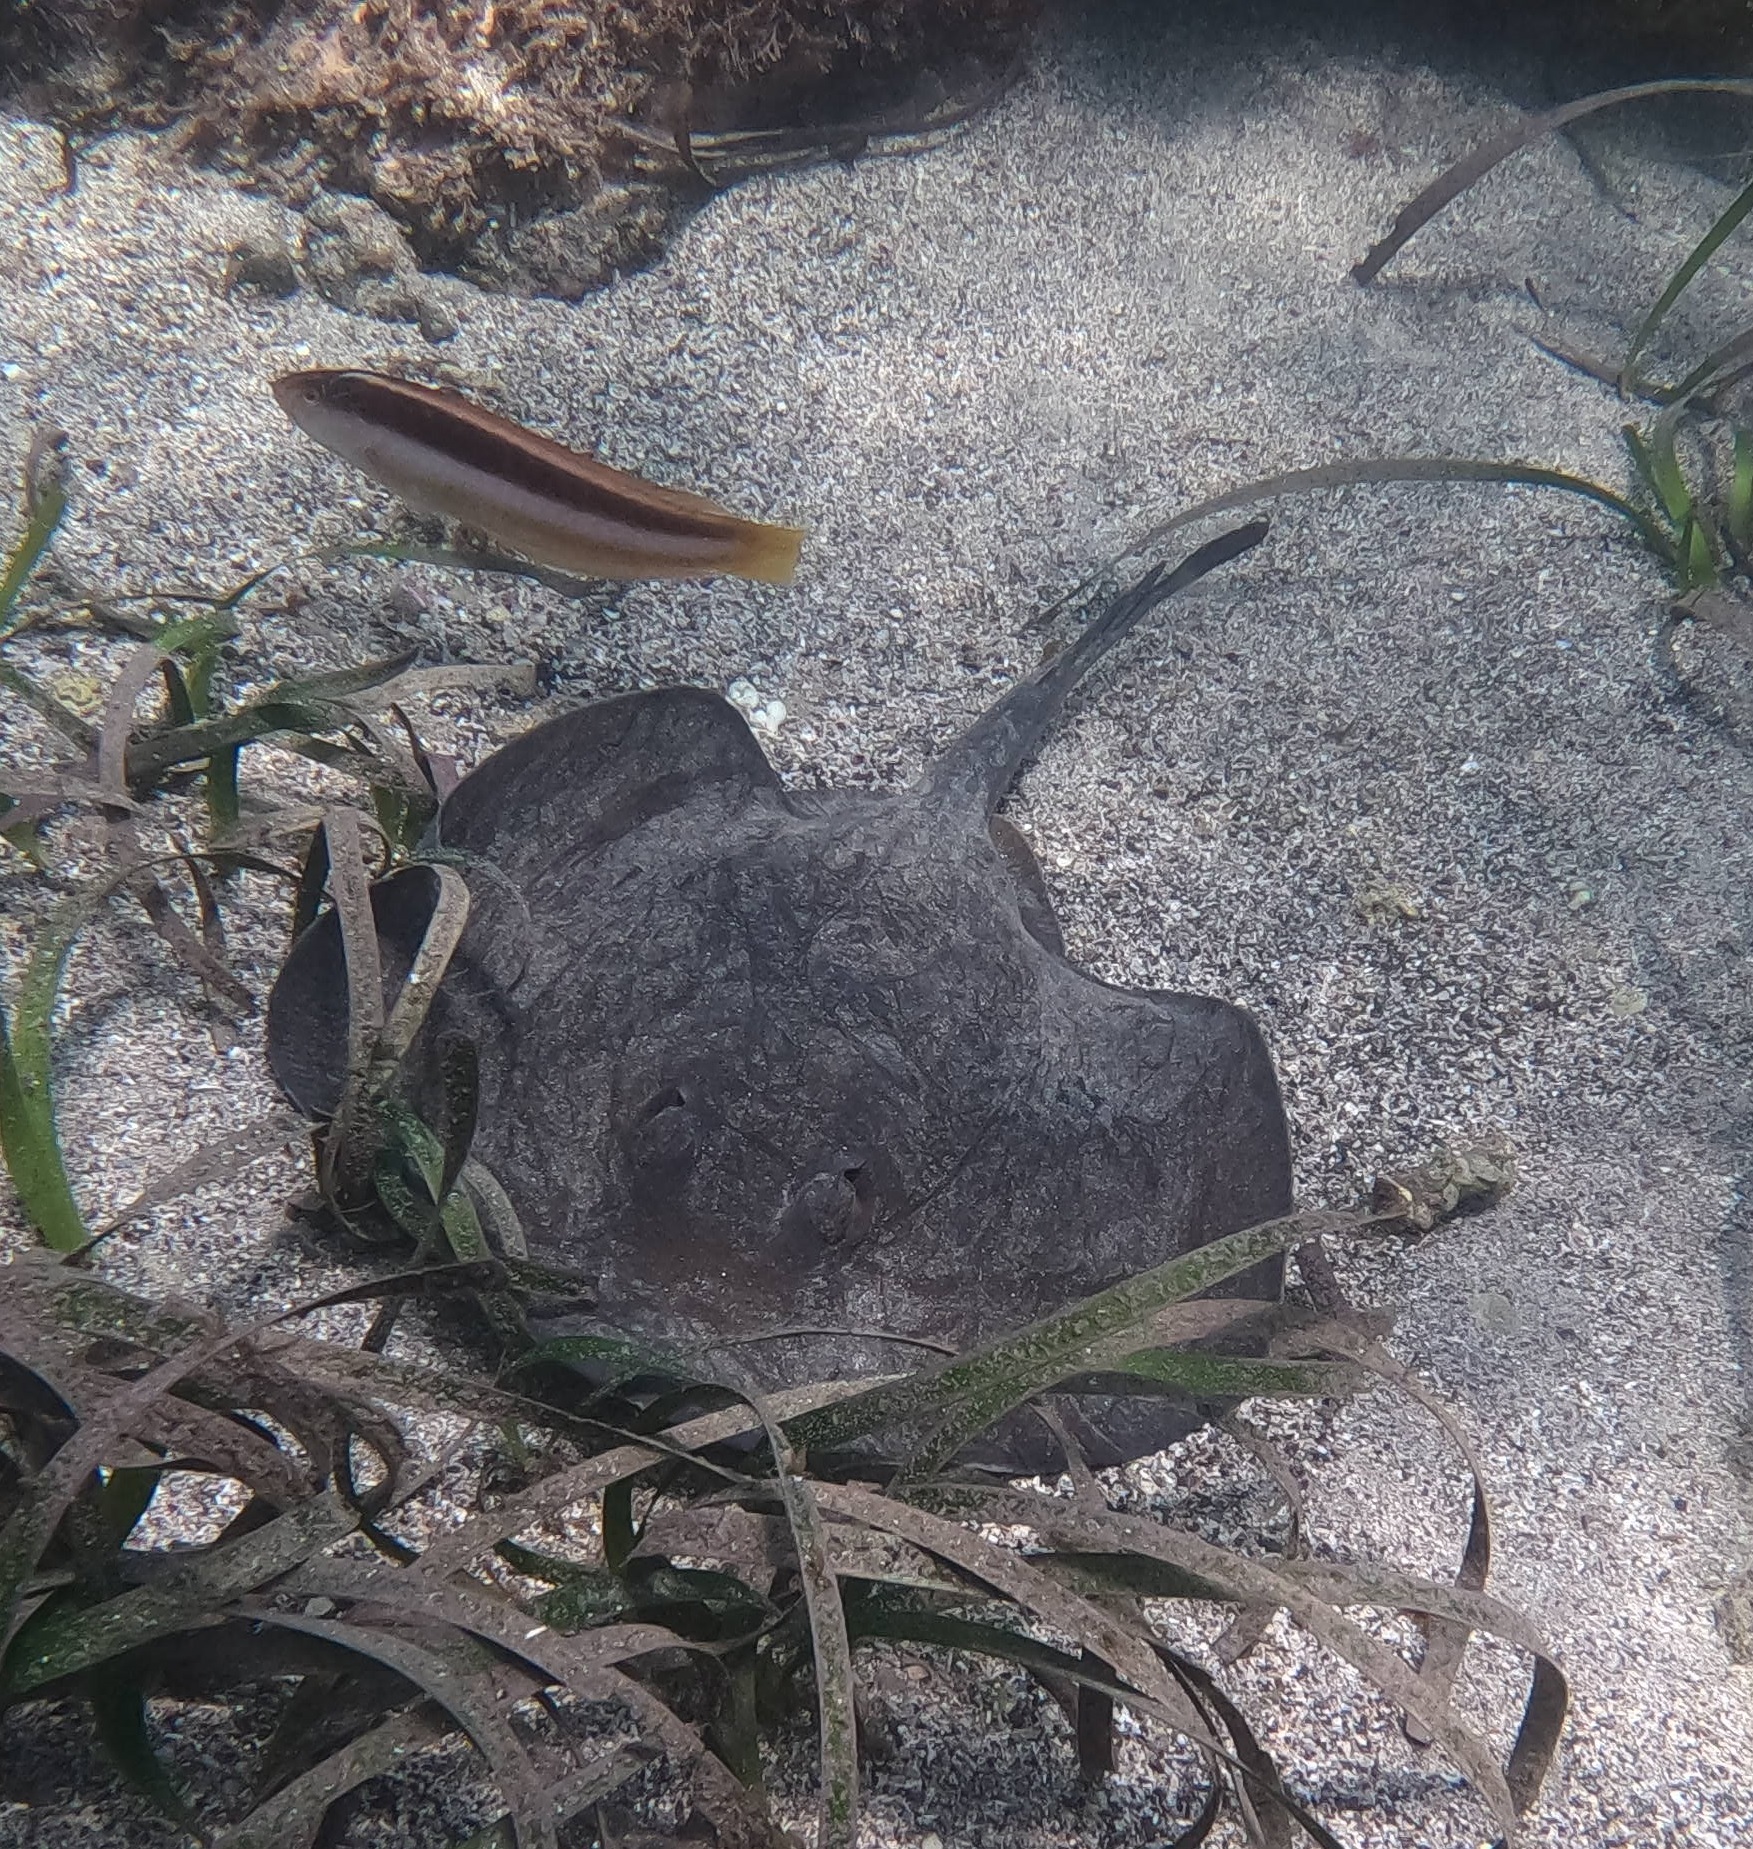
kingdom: Animalia
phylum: Chordata
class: Elasmobranchii
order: Myliobatiformes
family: Urolophidae
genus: Trygonoptera
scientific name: Trygonoptera testacea
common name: Common stingaree
